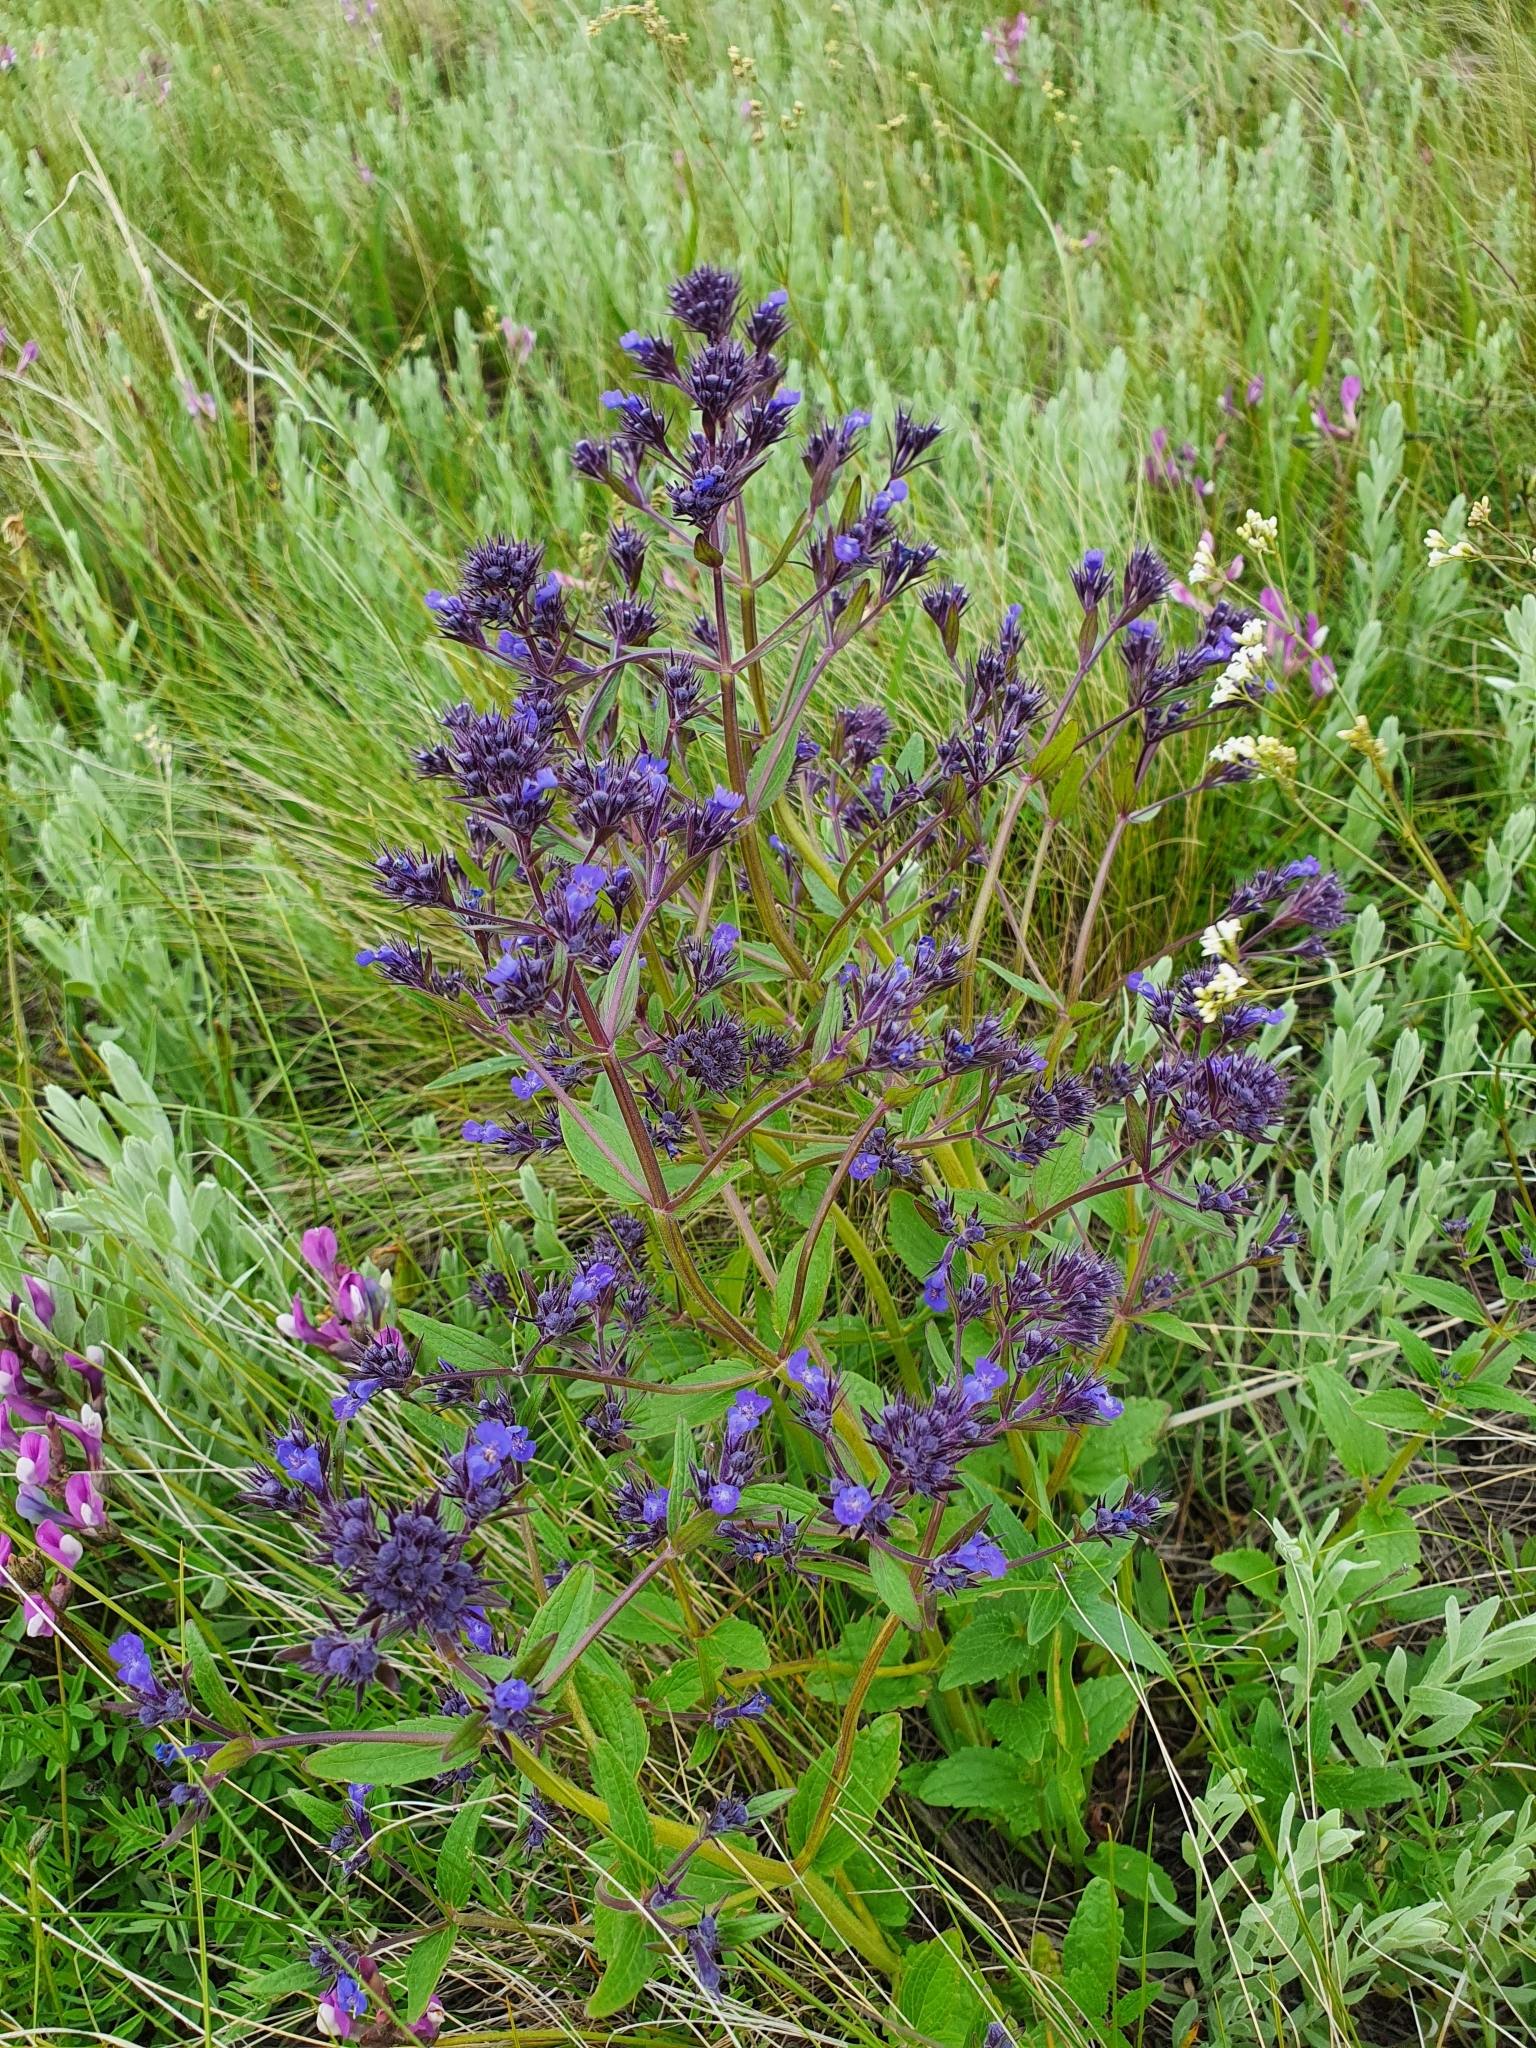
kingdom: Plantae
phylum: Tracheophyta
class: Magnoliopsida
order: Lamiales
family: Lamiaceae
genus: Nepeta
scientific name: Nepeta ucranica
